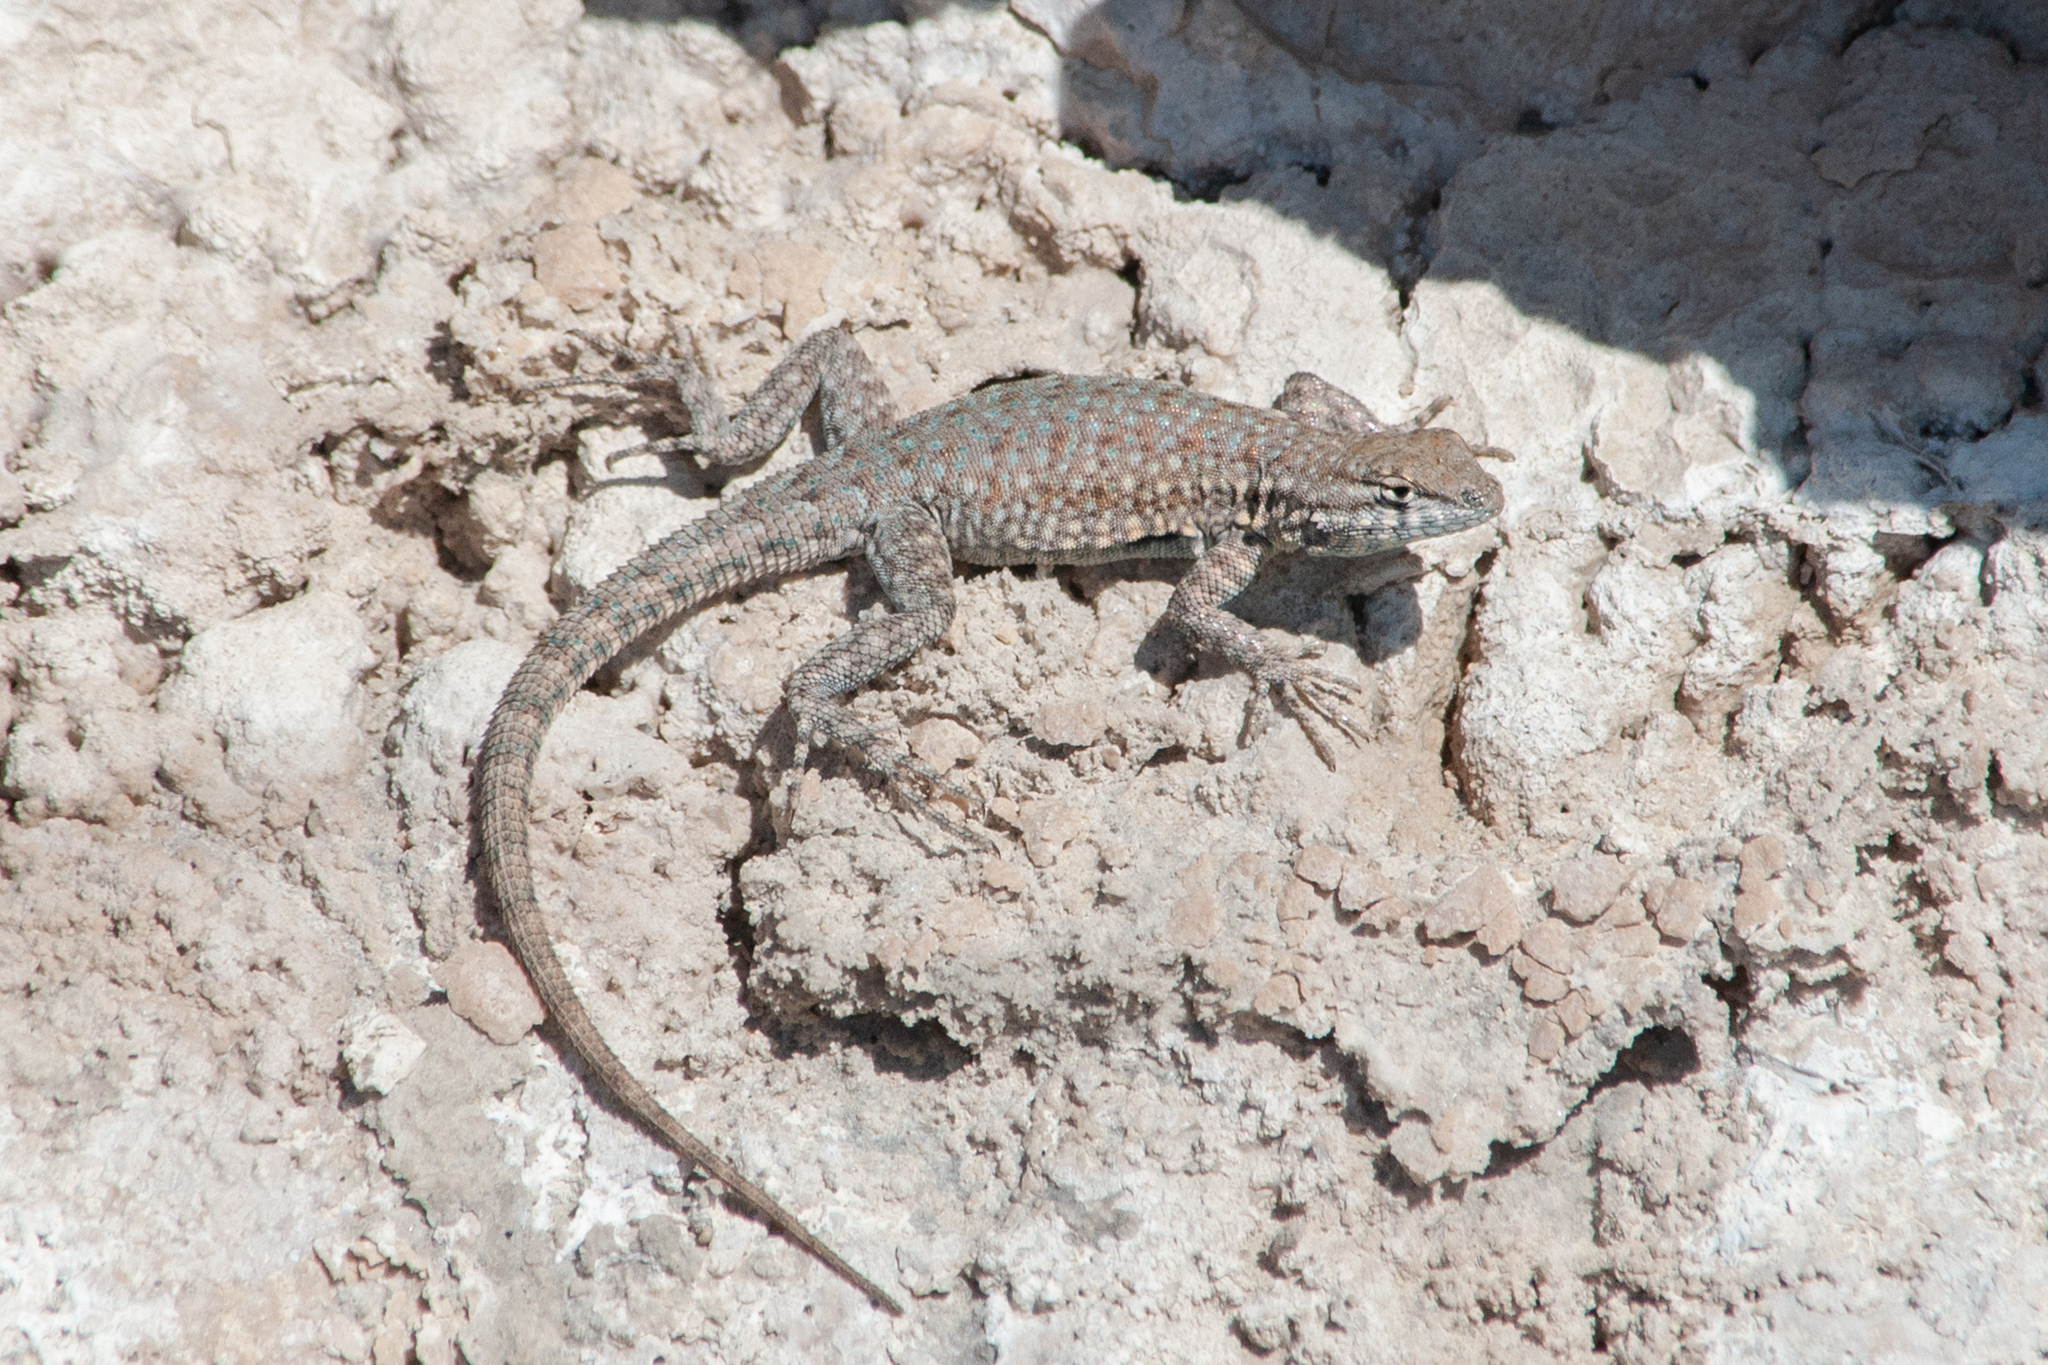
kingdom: Animalia
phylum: Chordata
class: Squamata
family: Phrynosomatidae
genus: Uta
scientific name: Uta stansburiana
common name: Side-blotched lizard
